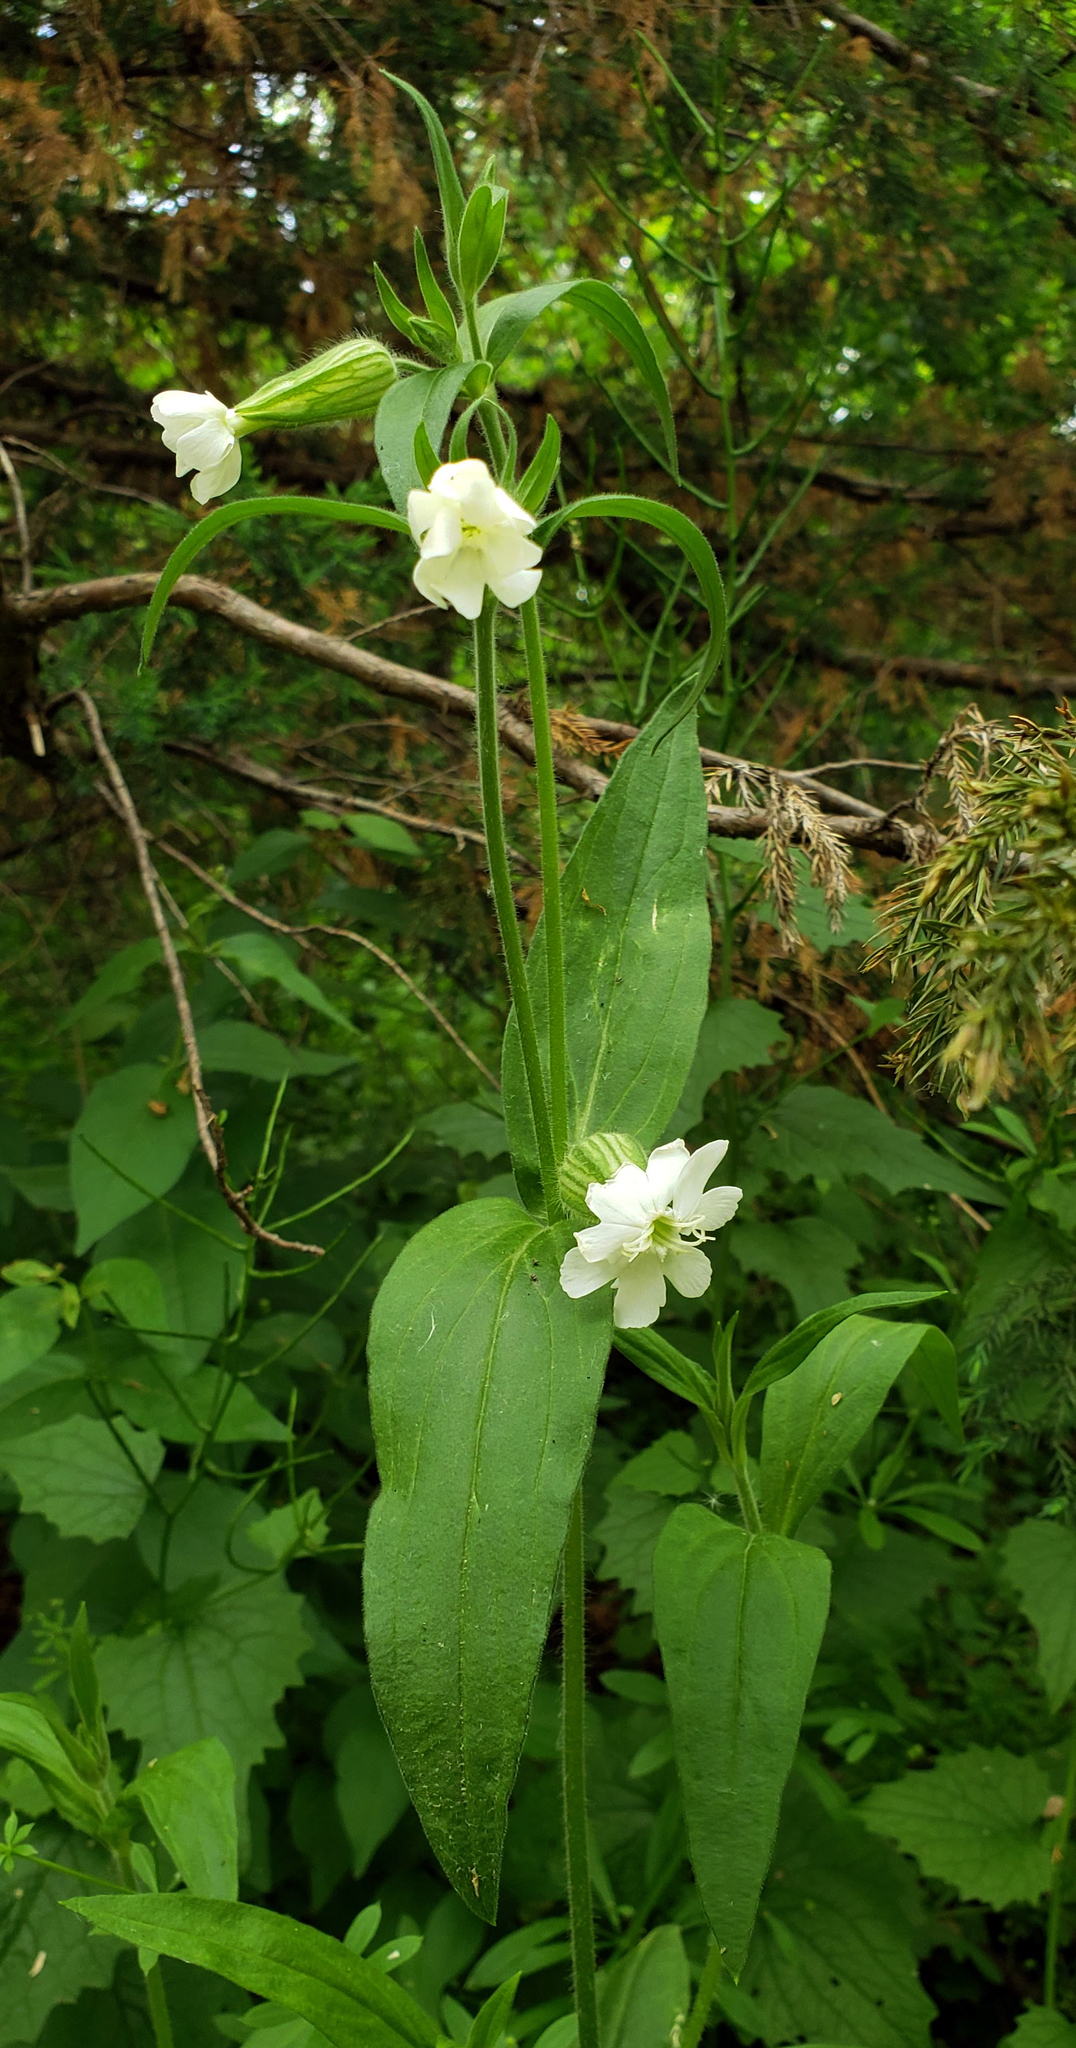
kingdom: Plantae
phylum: Tracheophyta
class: Magnoliopsida
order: Caryophyllales
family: Caryophyllaceae
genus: Silene
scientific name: Silene latifolia
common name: White campion
